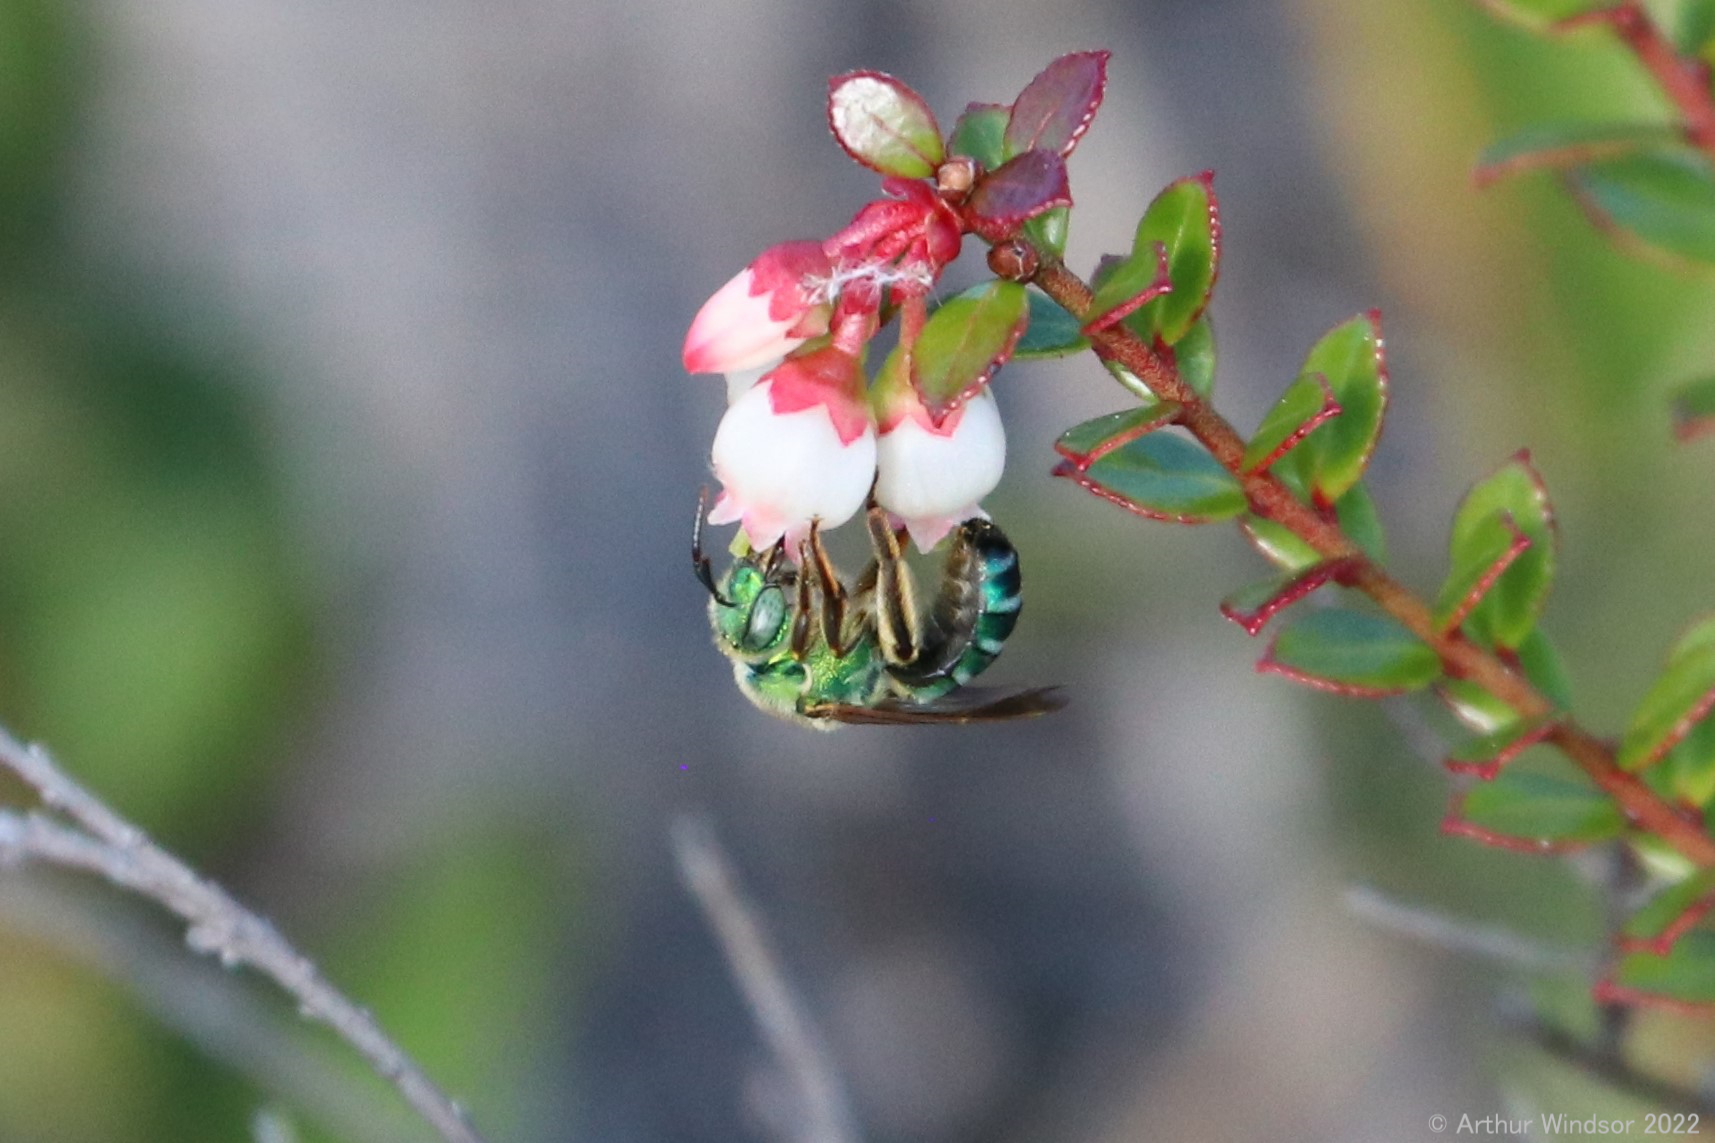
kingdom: Animalia
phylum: Arthropoda
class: Insecta
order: Hymenoptera
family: Halictidae
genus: Agapostemon
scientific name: Agapostemon splendens
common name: Brown-winged striped sweat bee
